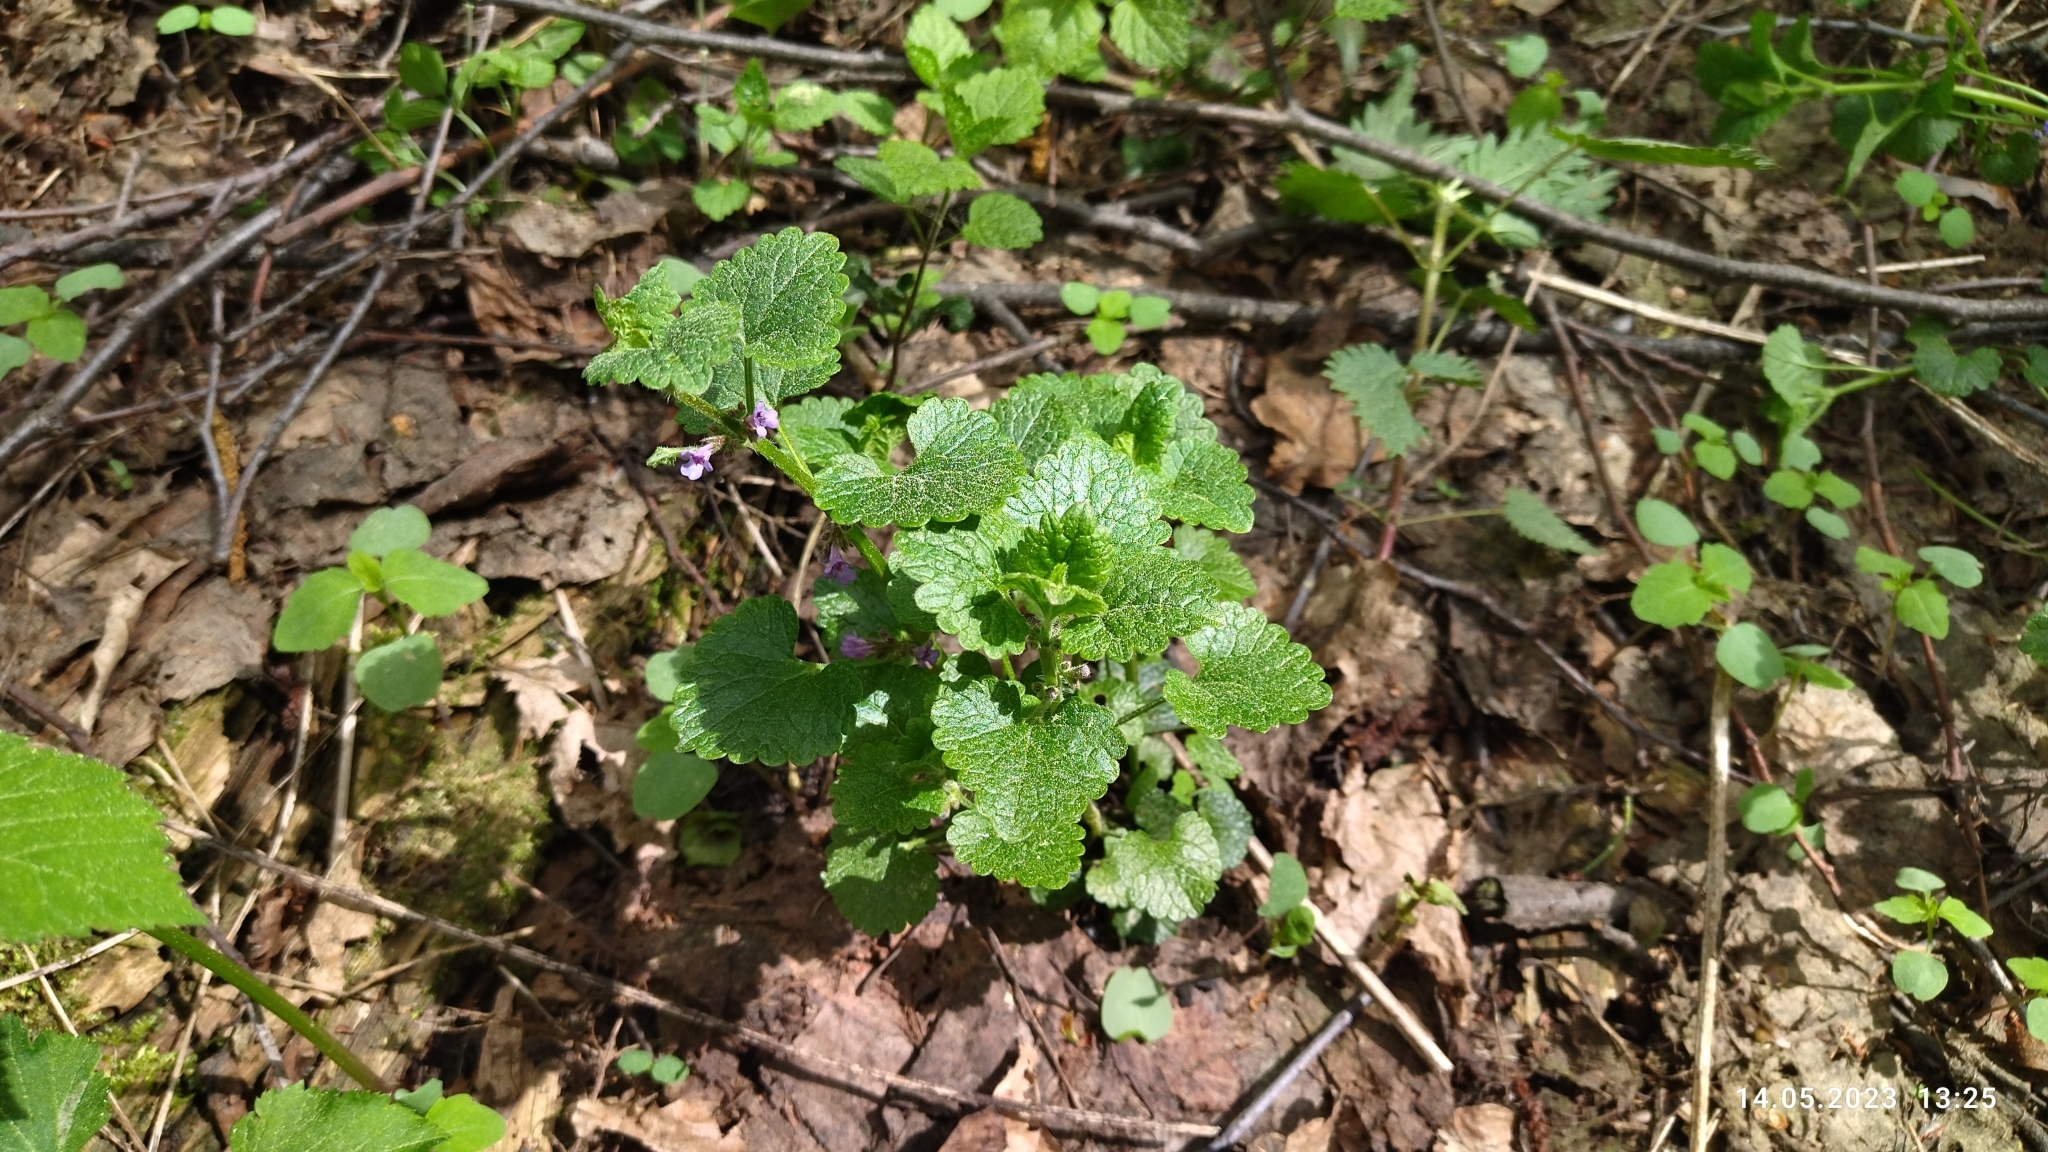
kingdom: Plantae
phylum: Tracheophyta
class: Magnoliopsida
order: Lamiales
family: Lamiaceae
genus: Glechoma
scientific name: Glechoma hederacea
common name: Ground ivy
